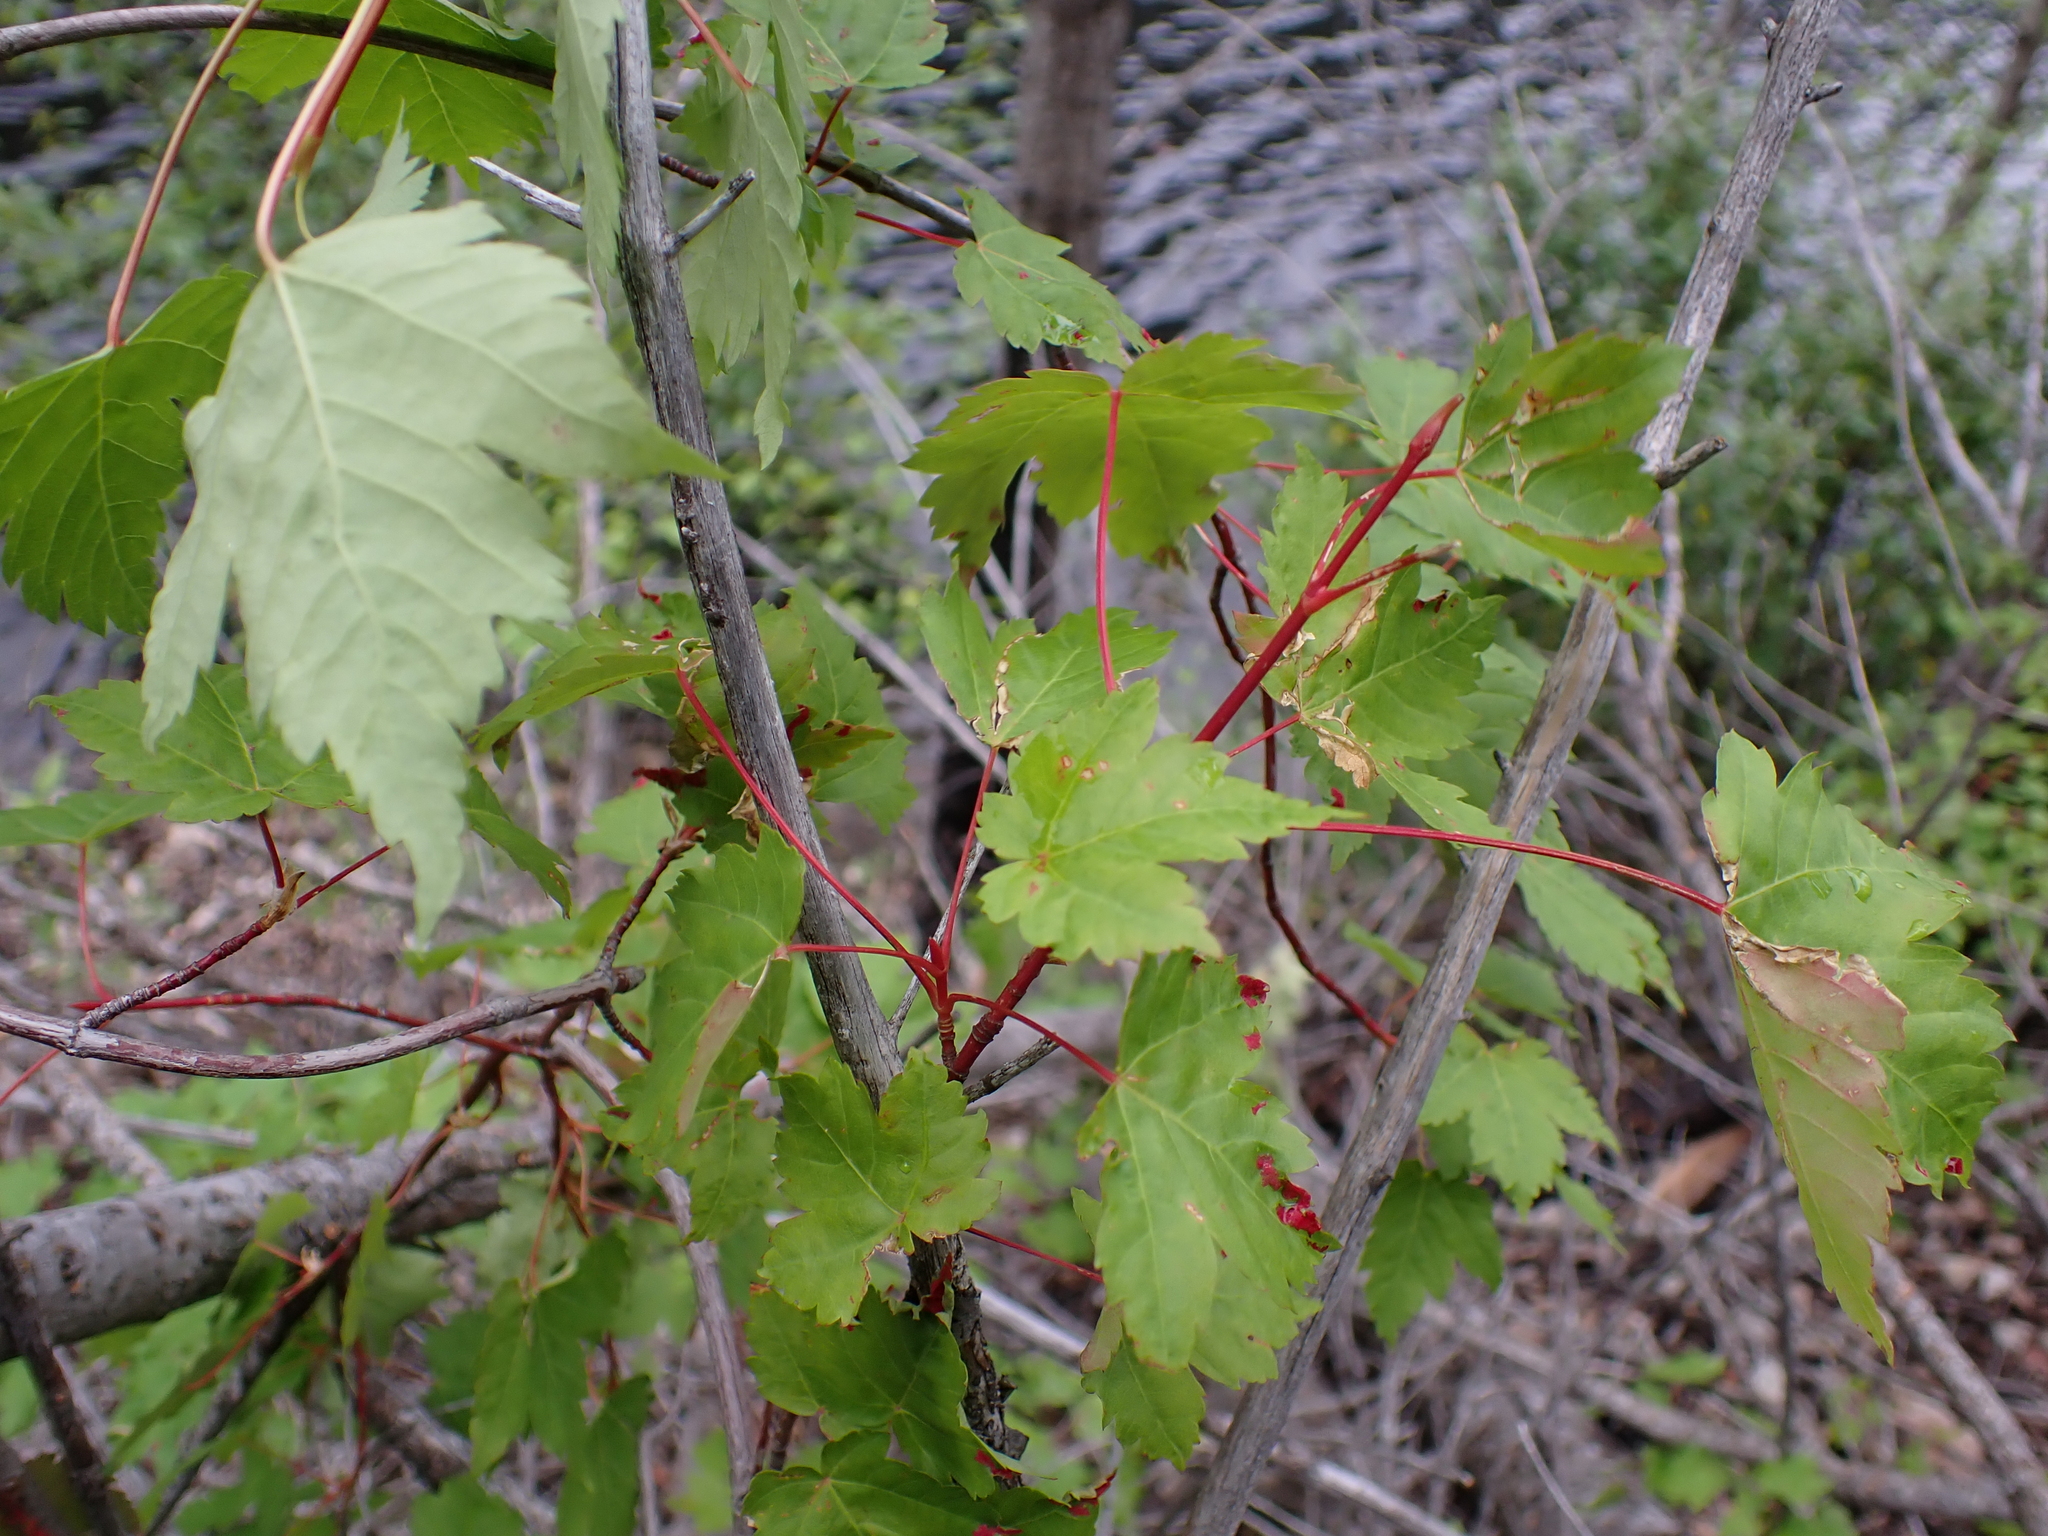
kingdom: Plantae
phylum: Tracheophyta
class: Magnoliopsida
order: Sapindales
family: Sapindaceae
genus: Acer
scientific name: Acer glabrum
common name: Rocky mountain maple
